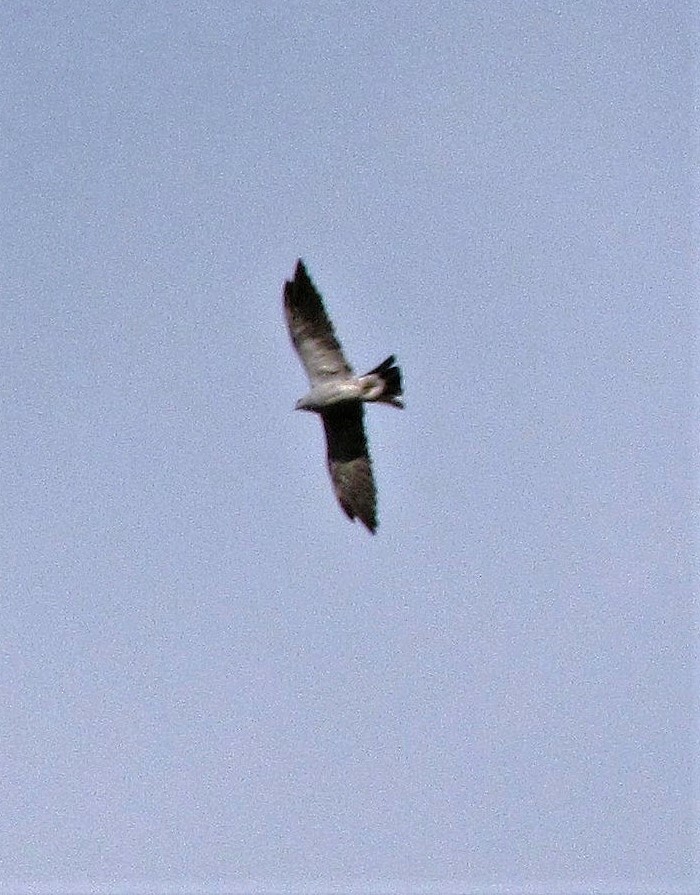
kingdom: Animalia
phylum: Chordata
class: Aves
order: Accipitriformes
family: Accipitridae
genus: Ictinia
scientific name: Ictinia mississippiensis
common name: Mississippi kite
